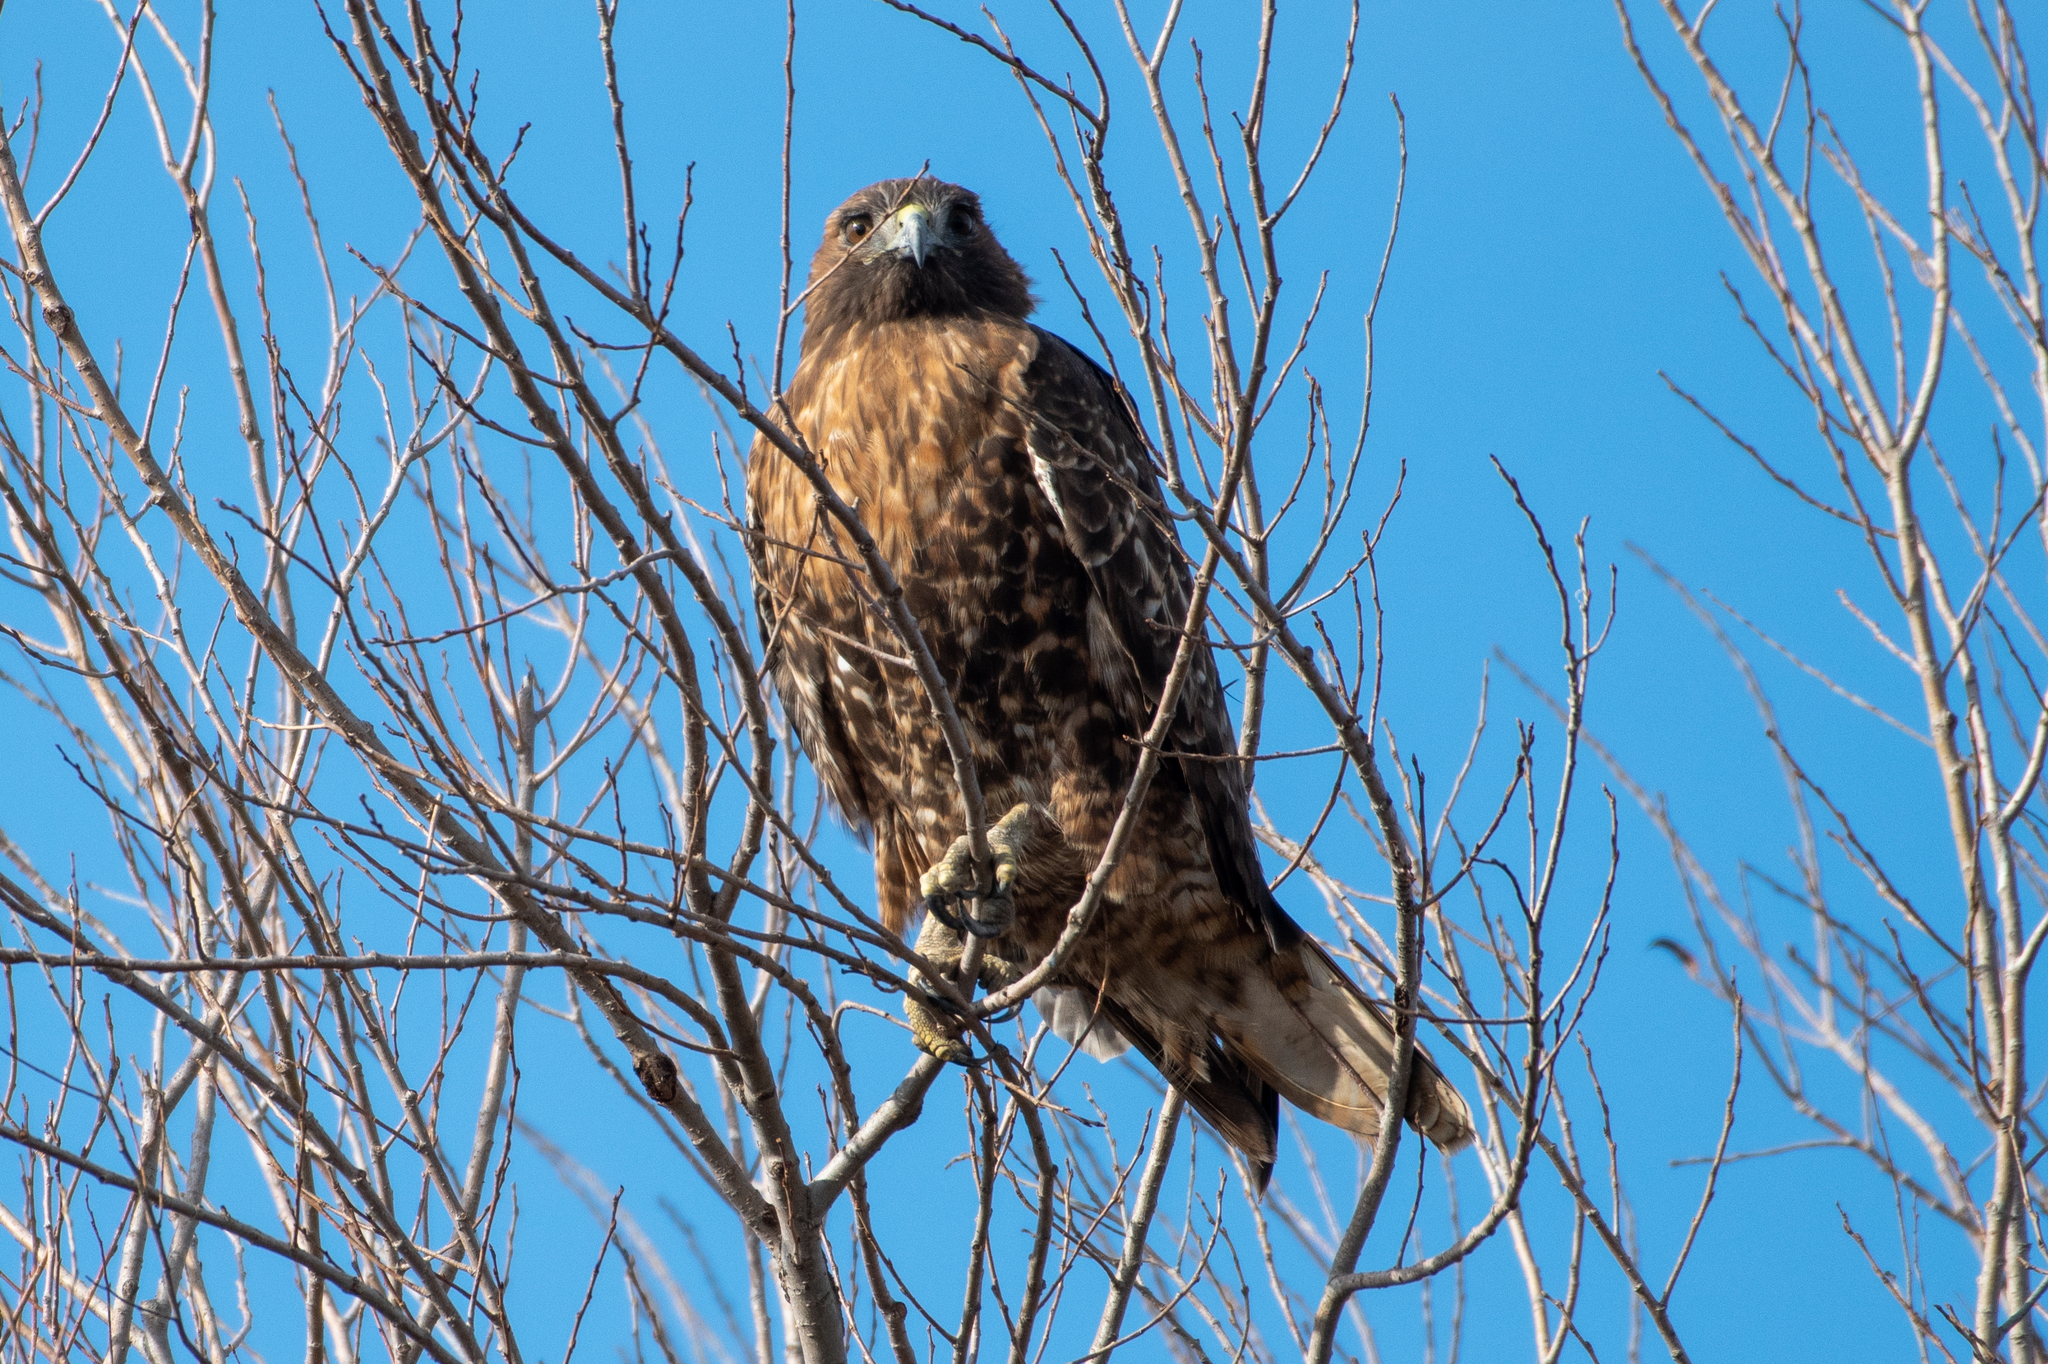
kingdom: Animalia
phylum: Chordata
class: Aves
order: Accipitriformes
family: Accipitridae
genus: Buteo
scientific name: Buteo jamaicensis
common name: Red-tailed hawk
